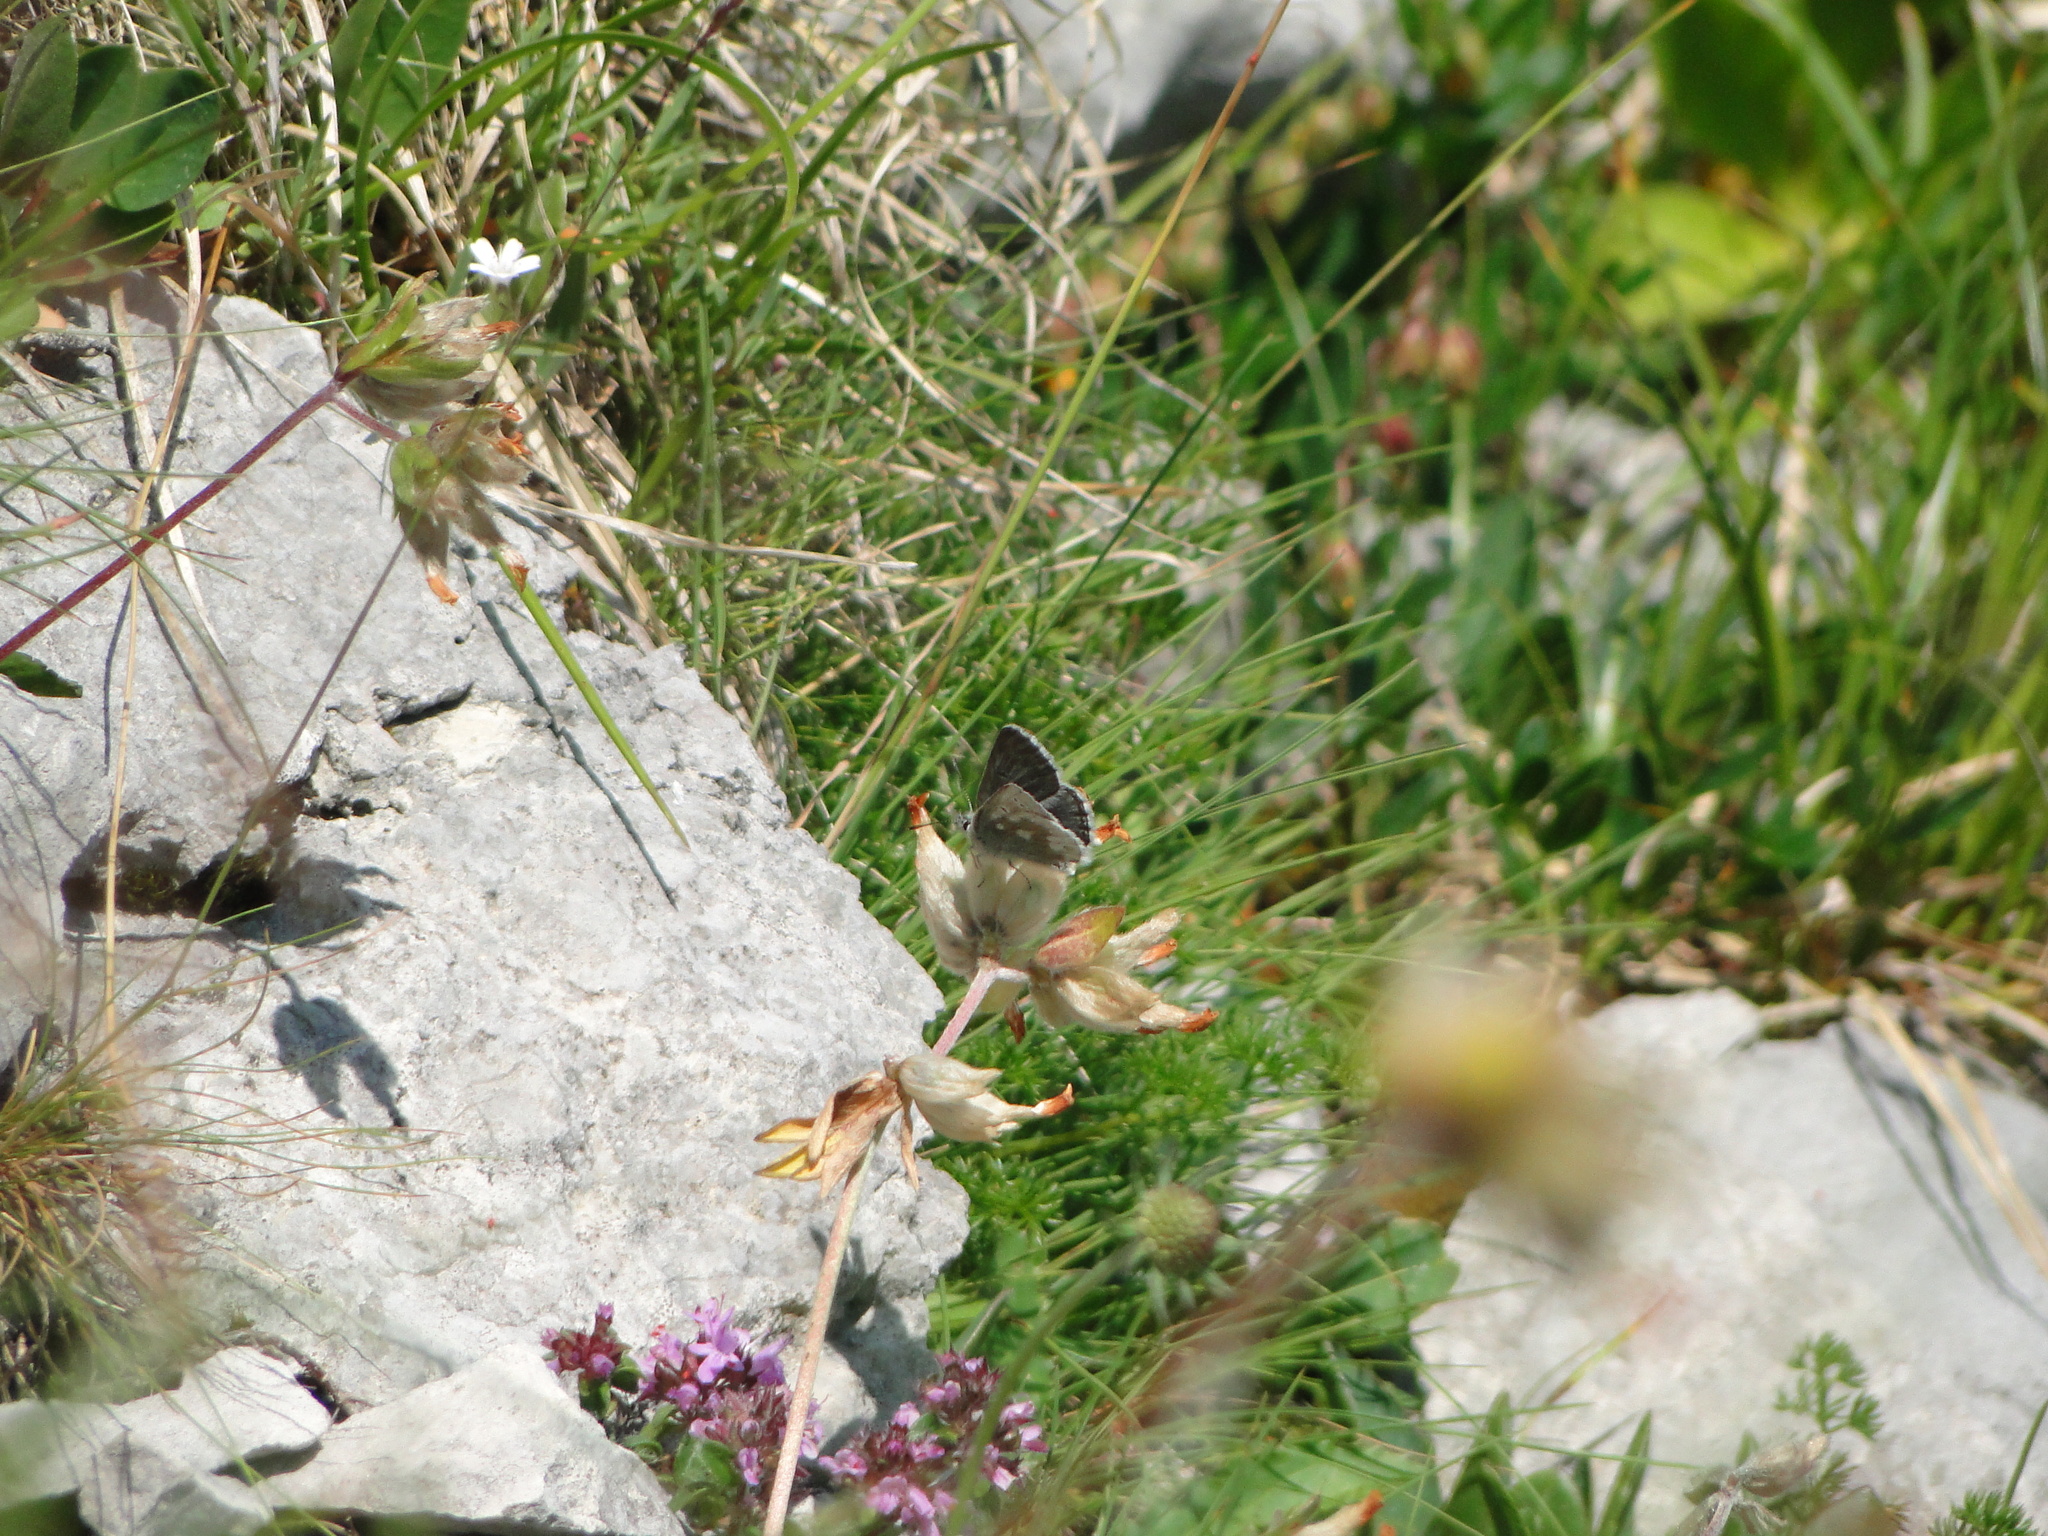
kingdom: Animalia
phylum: Arthropoda
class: Insecta
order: Lepidoptera
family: Lycaenidae
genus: Agriades
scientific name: Agriades glandon
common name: Glandon blue
